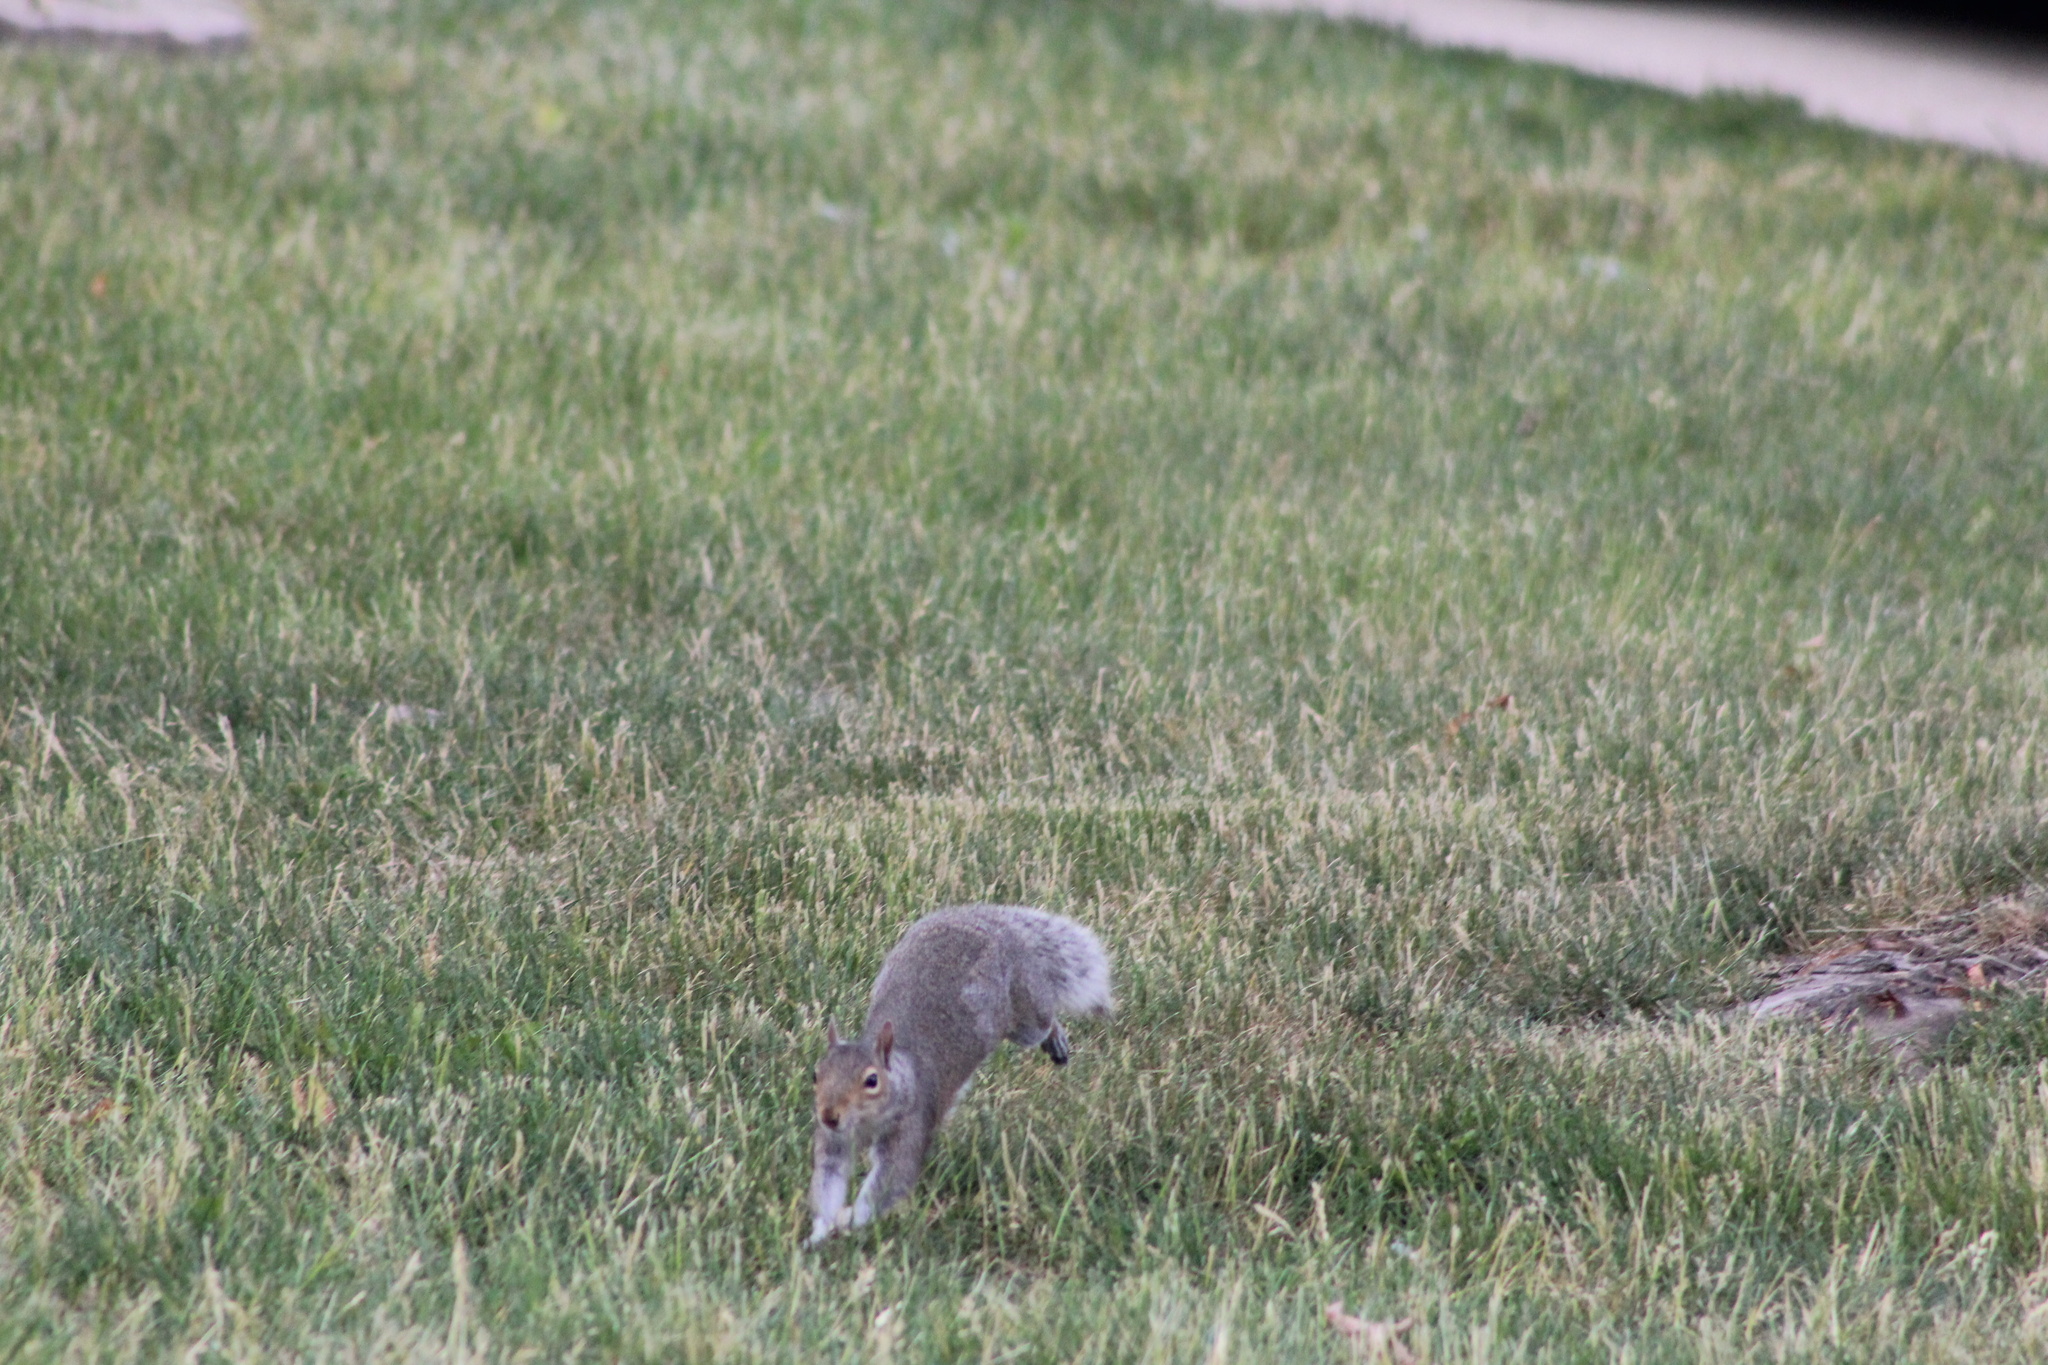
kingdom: Animalia
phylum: Chordata
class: Mammalia
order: Rodentia
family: Sciuridae
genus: Sciurus
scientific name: Sciurus carolinensis
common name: Eastern gray squirrel
